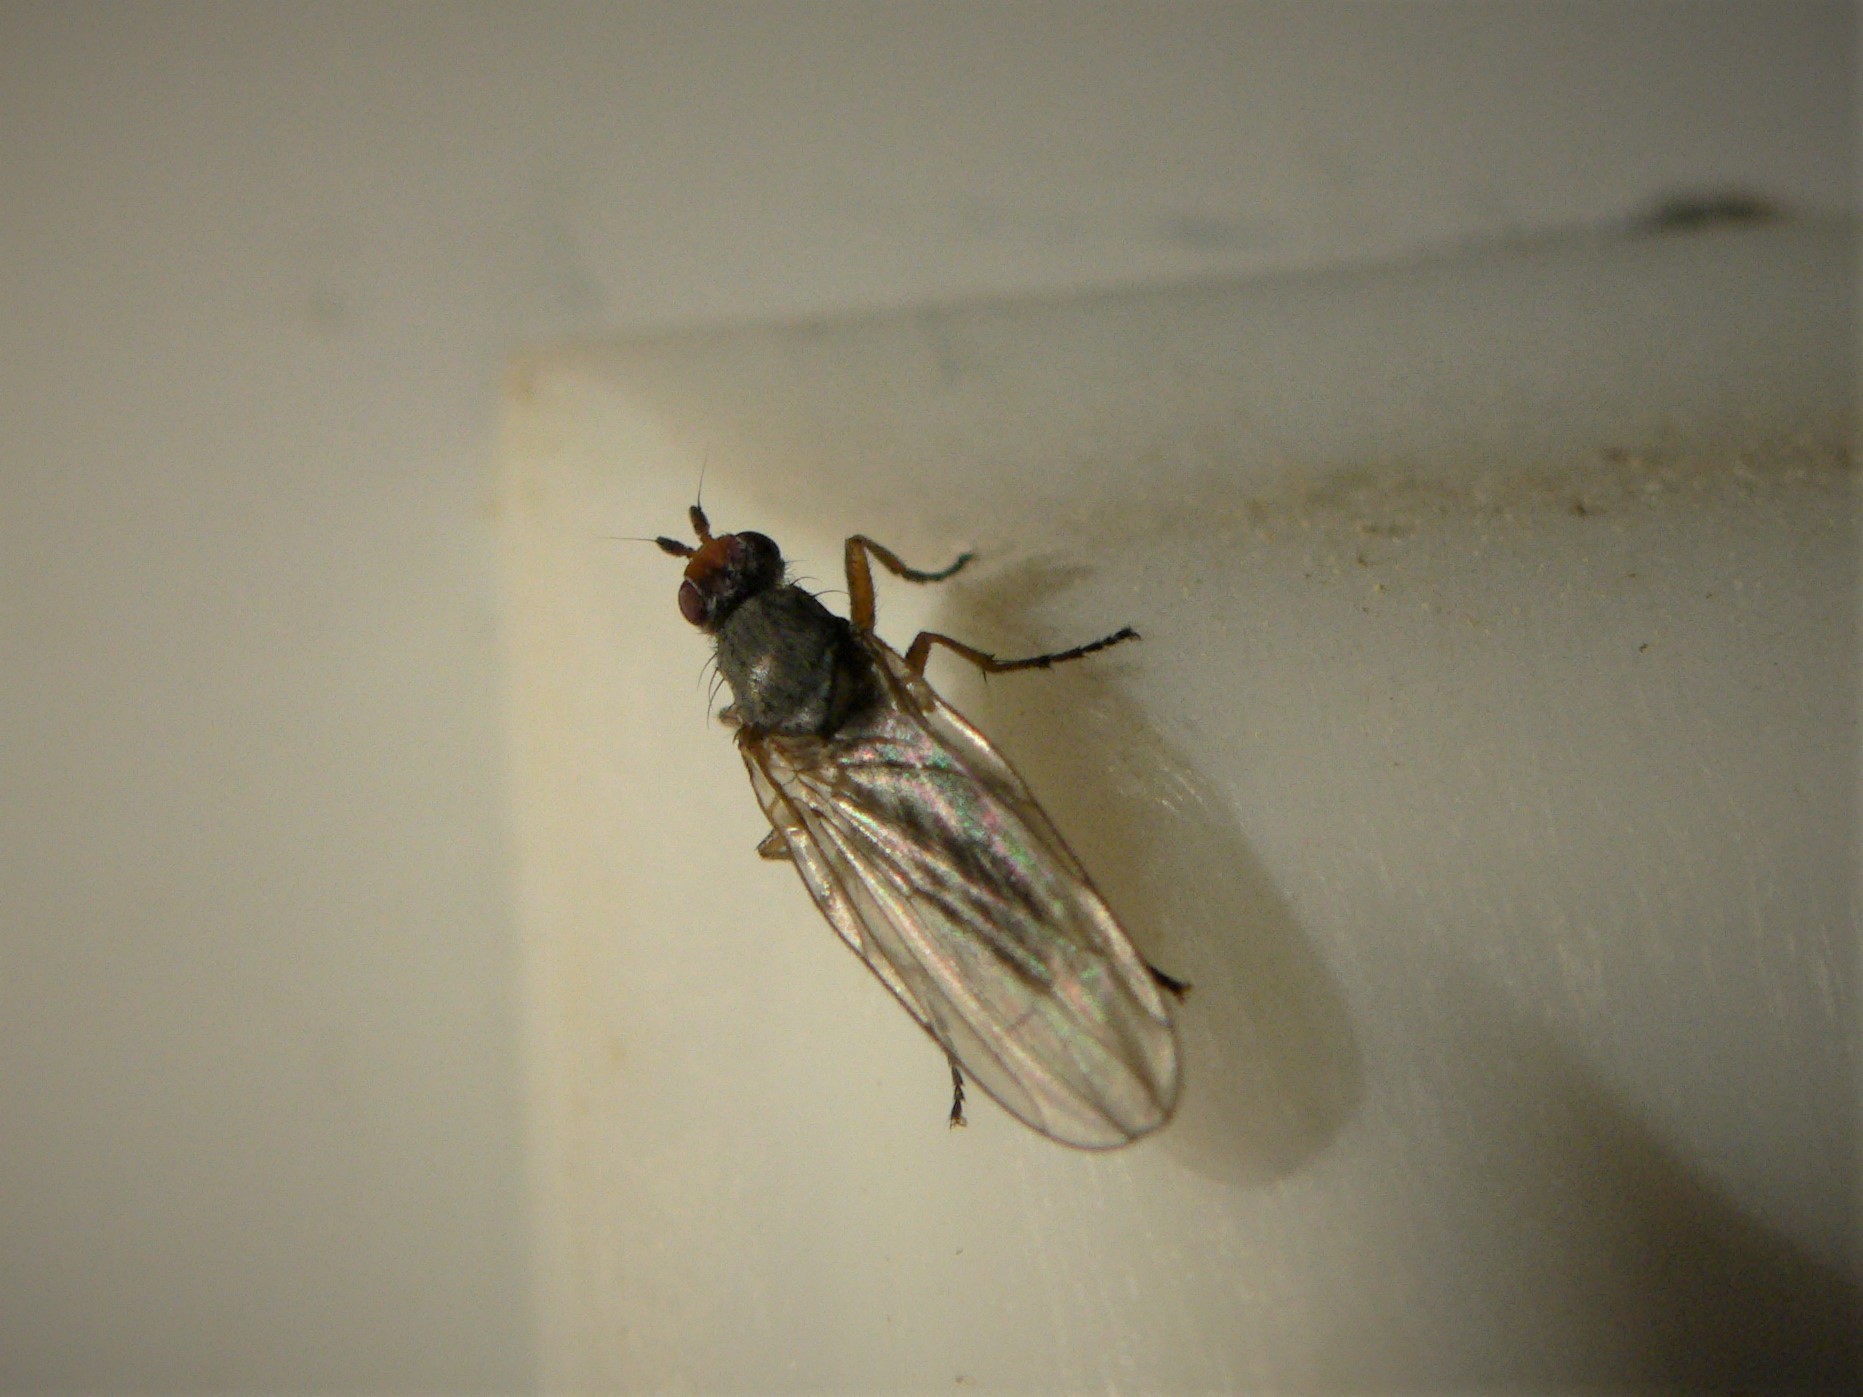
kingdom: Animalia
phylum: Arthropoda
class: Insecta
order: Diptera
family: Heleomyzidae
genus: Orbellia
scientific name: Orbellia barbata
